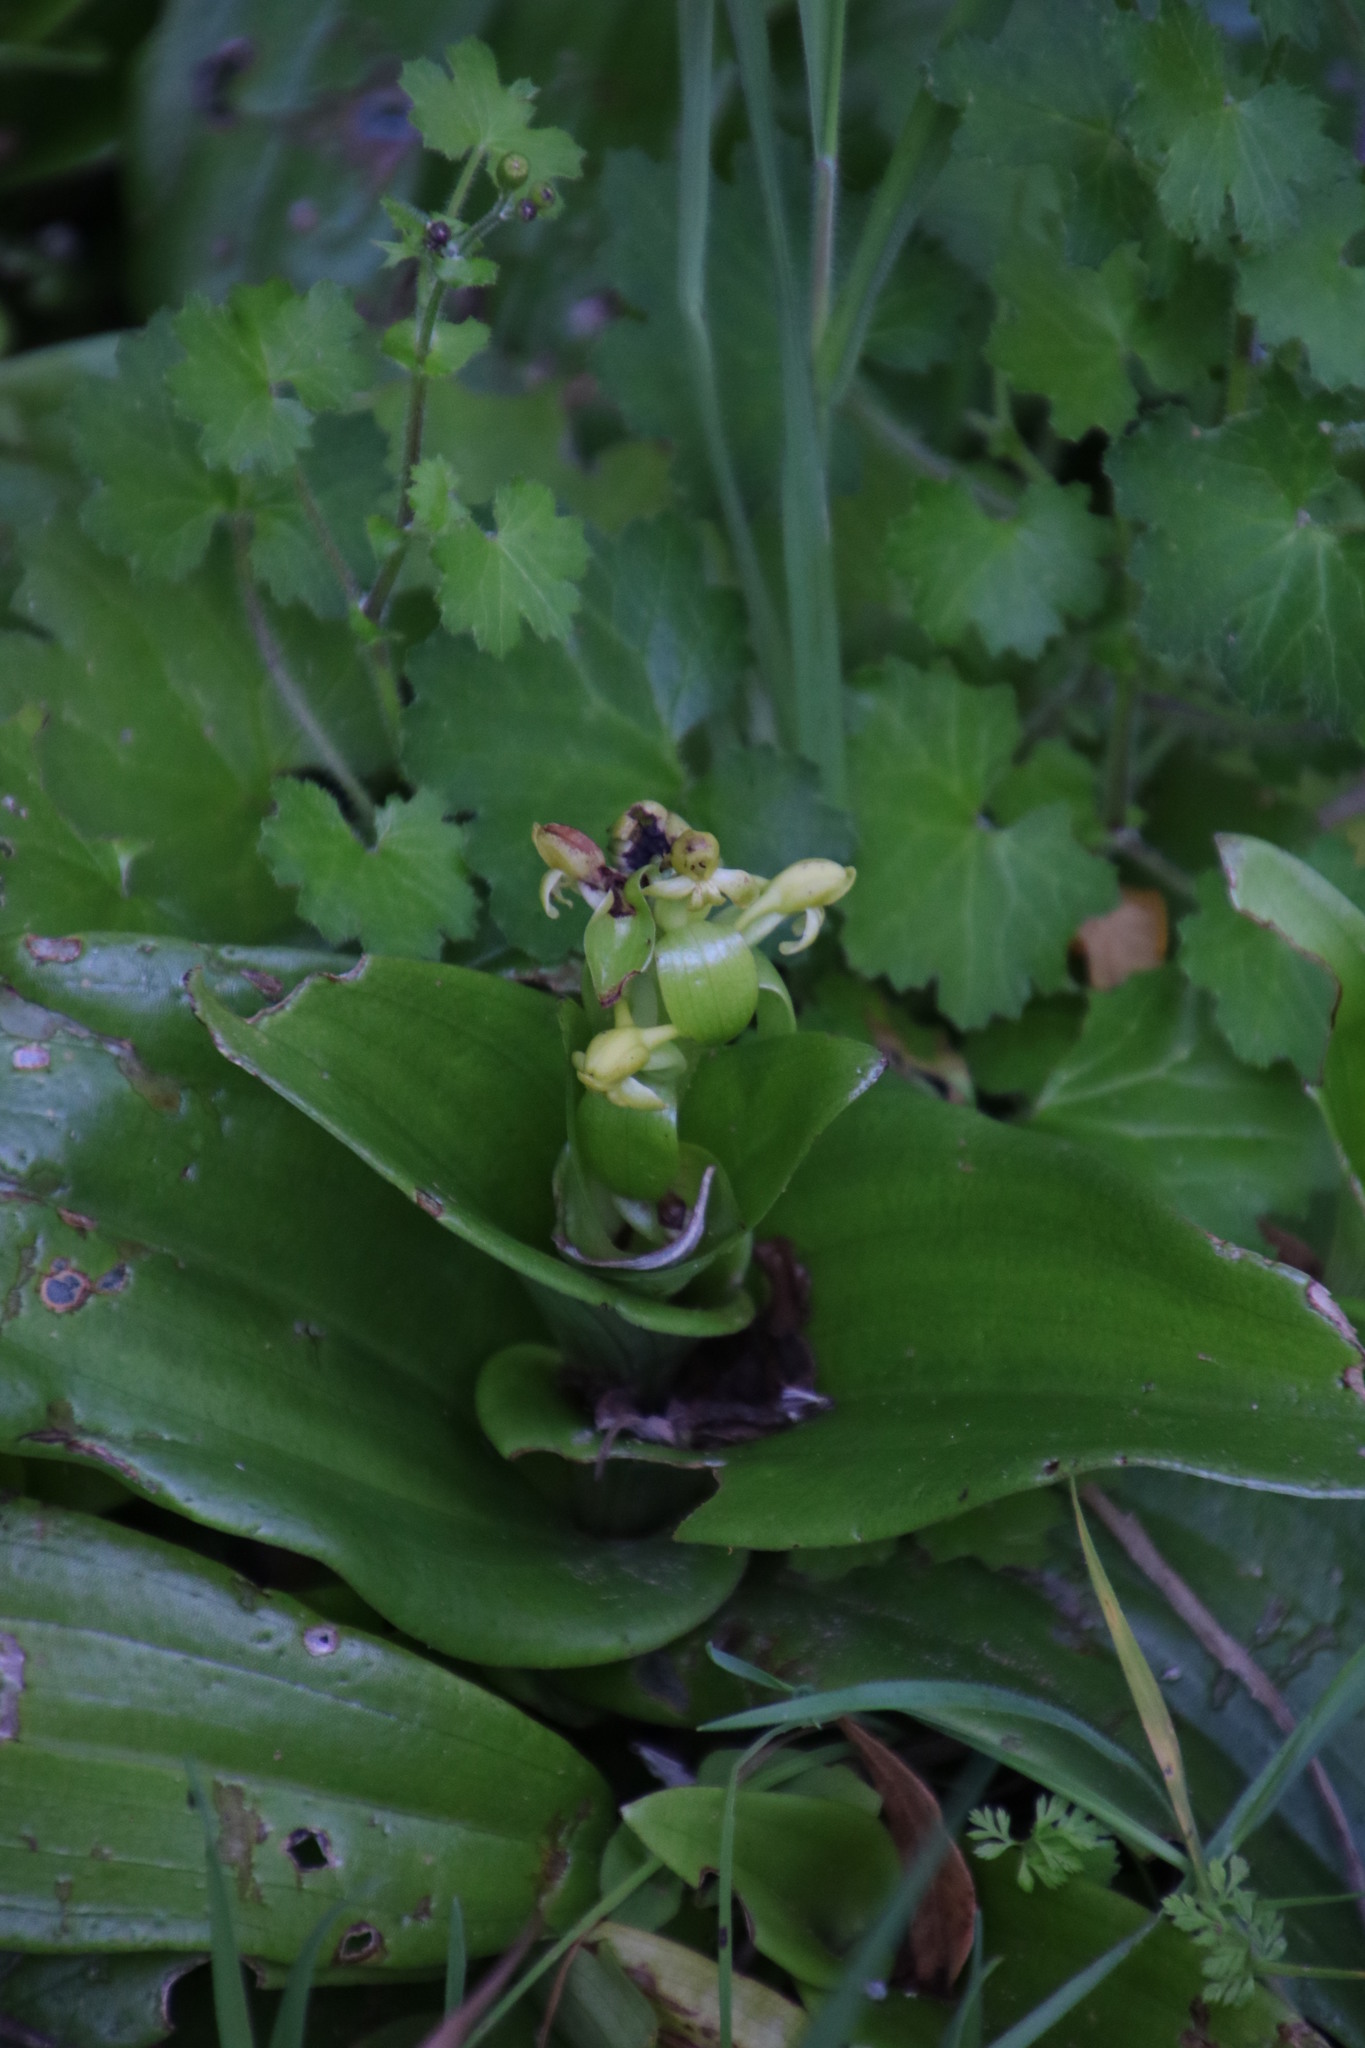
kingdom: Plantae
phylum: Tracheophyta
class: Liliopsida
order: Asparagales
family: Orchidaceae
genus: Satyrium
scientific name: Satyrium odorum
